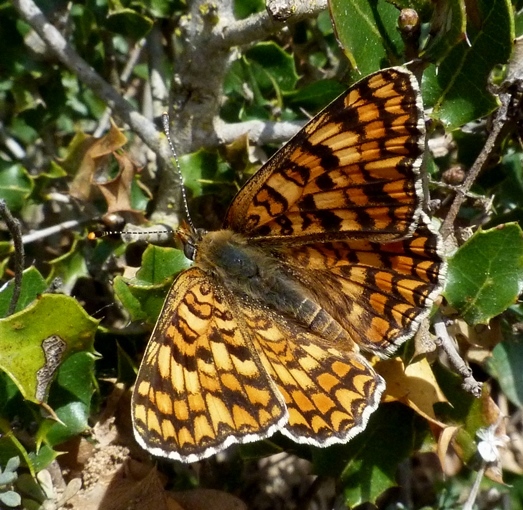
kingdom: Animalia
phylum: Arthropoda
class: Insecta
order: Lepidoptera
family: Nymphalidae
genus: Melitaea
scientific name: Melitaea phoebe
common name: Knapweed fritillary
